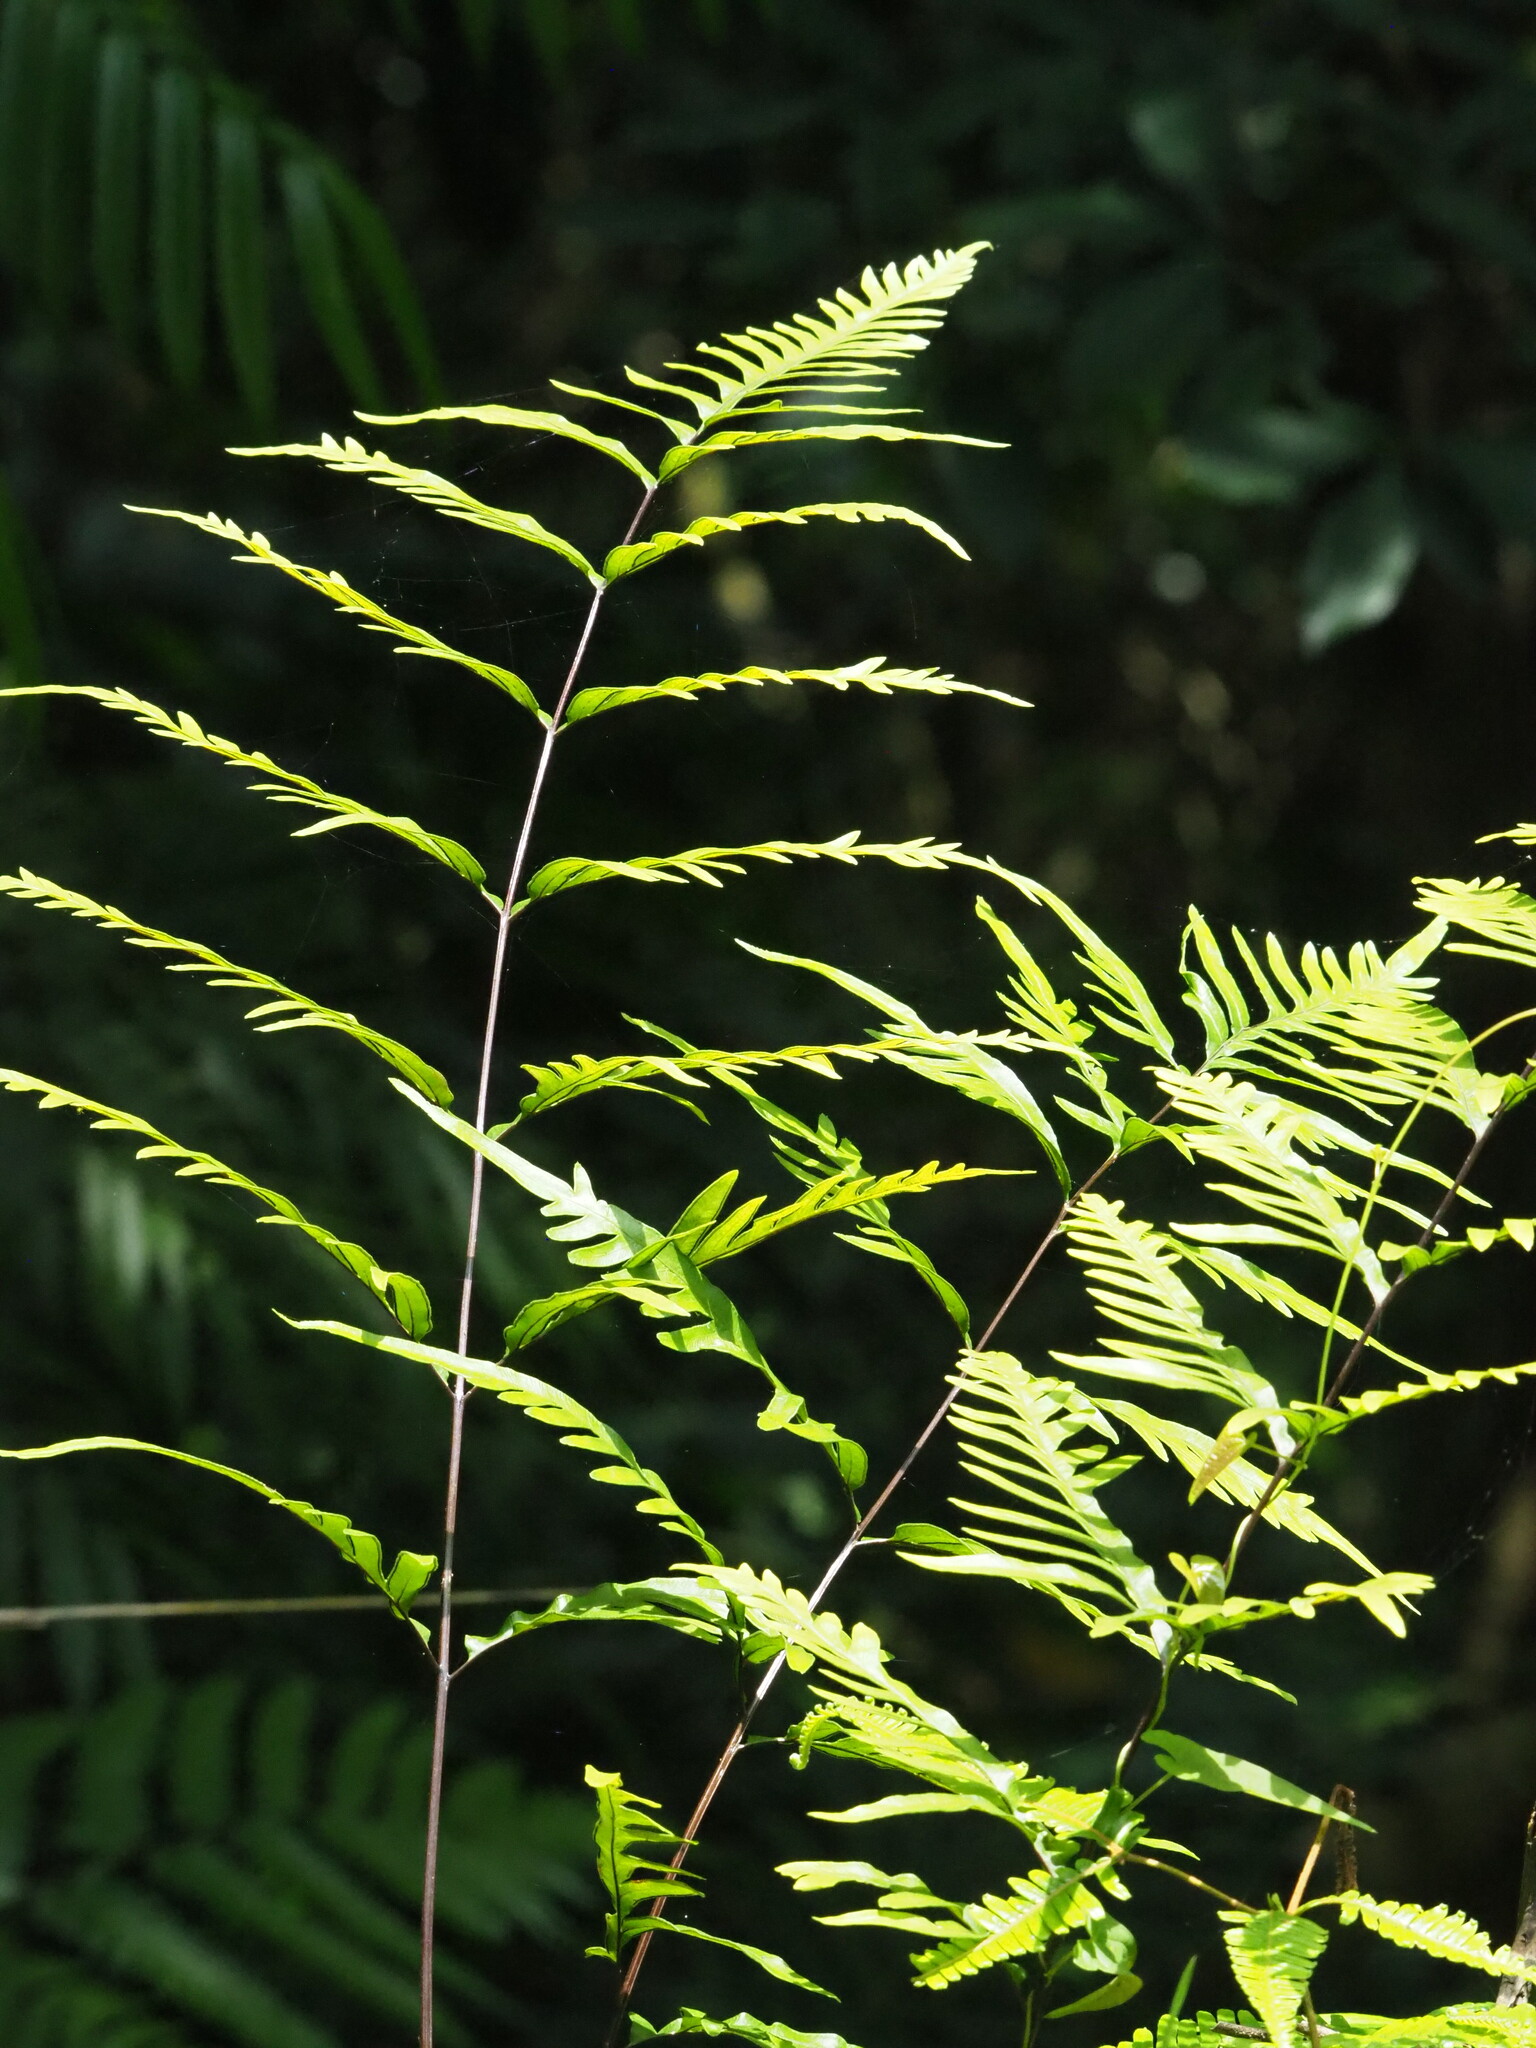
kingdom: Plantae
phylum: Tracheophyta
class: Polypodiopsida
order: Polypodiales
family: Pteridaceae
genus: Pteris
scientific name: Pteris semipinnata
